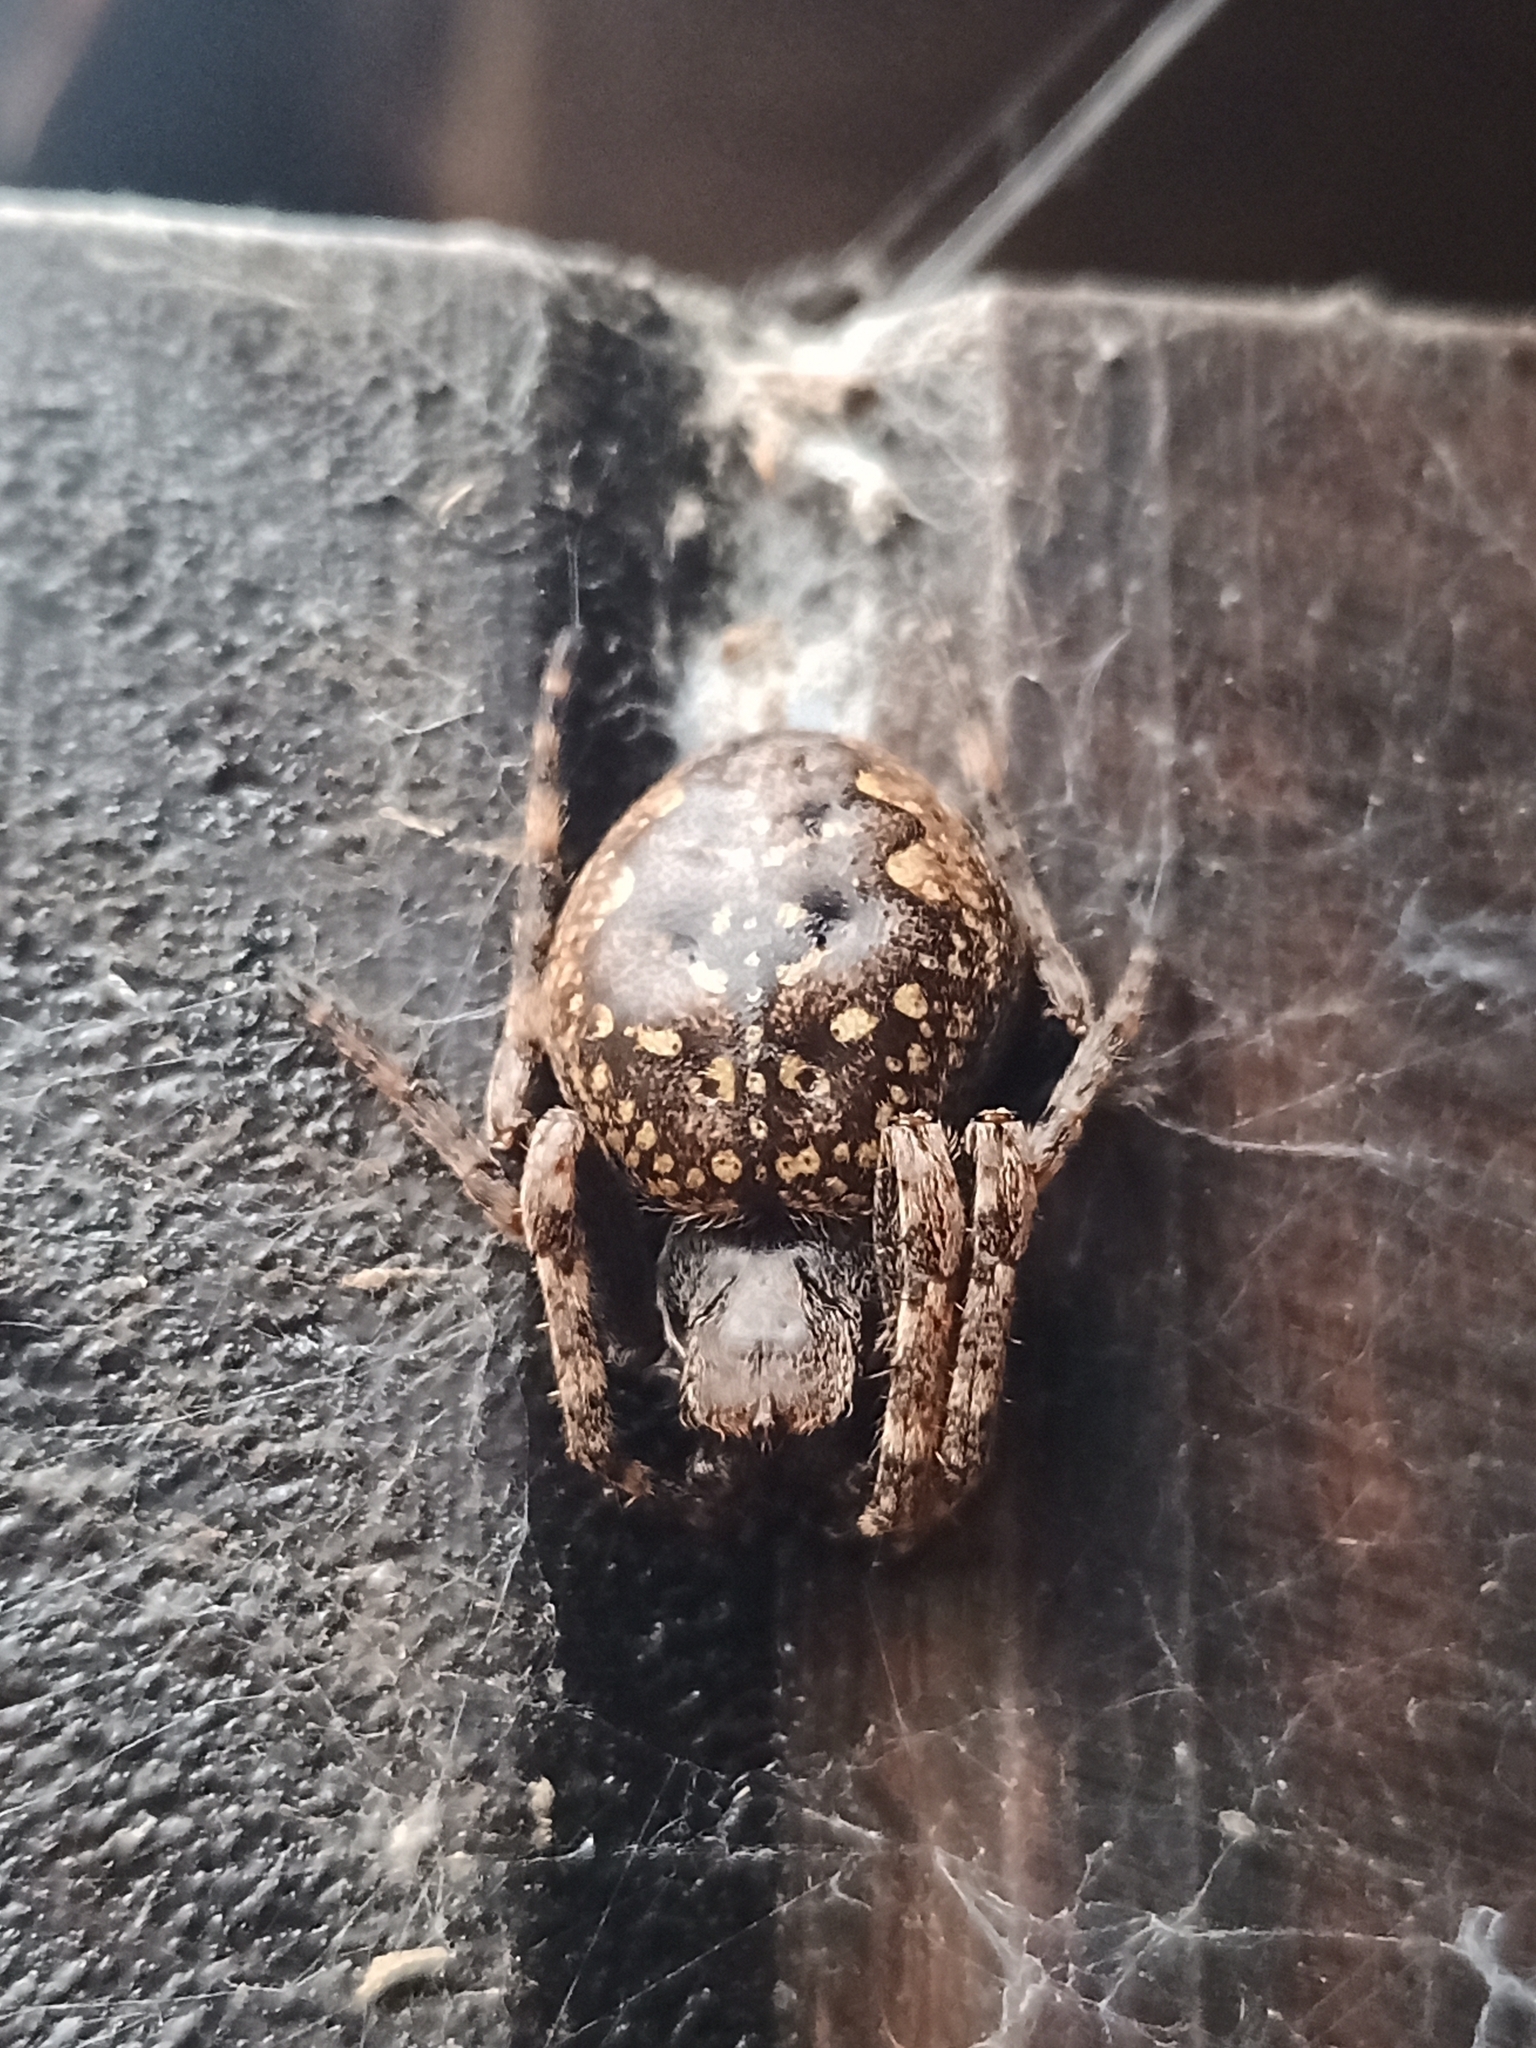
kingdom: Animalia
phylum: Arthropoda
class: Arachnida
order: Araneae
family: Araneidae
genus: Nuctenea
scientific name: Nuctenea umbratica
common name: Toad spider
